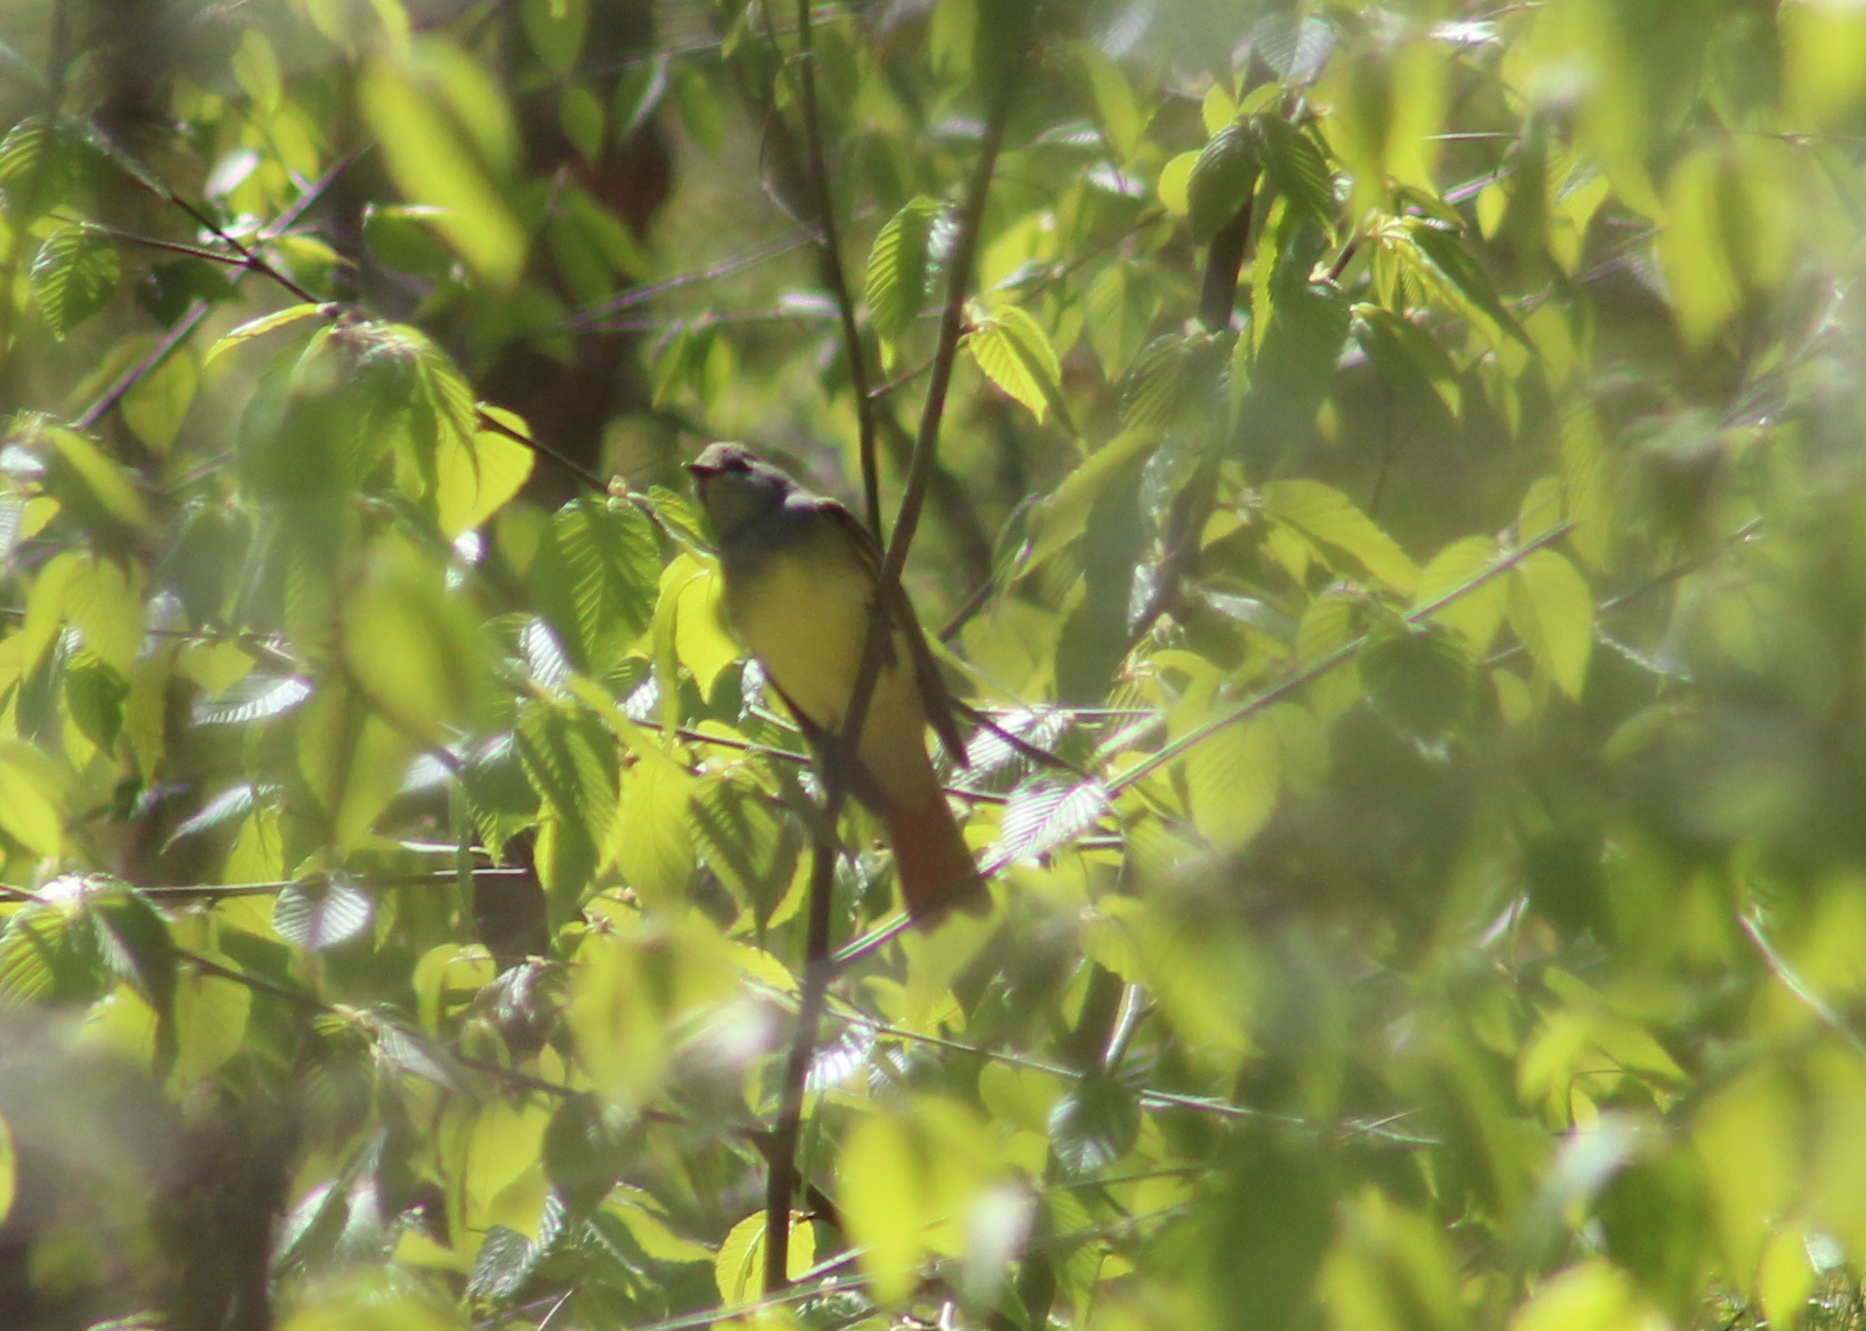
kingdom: Animalia
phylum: Chordata
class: Aves
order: Passeriformes
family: Tyrannidae
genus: Myiarchus
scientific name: Myiarchus crinitus
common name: Great crested flycatcher
